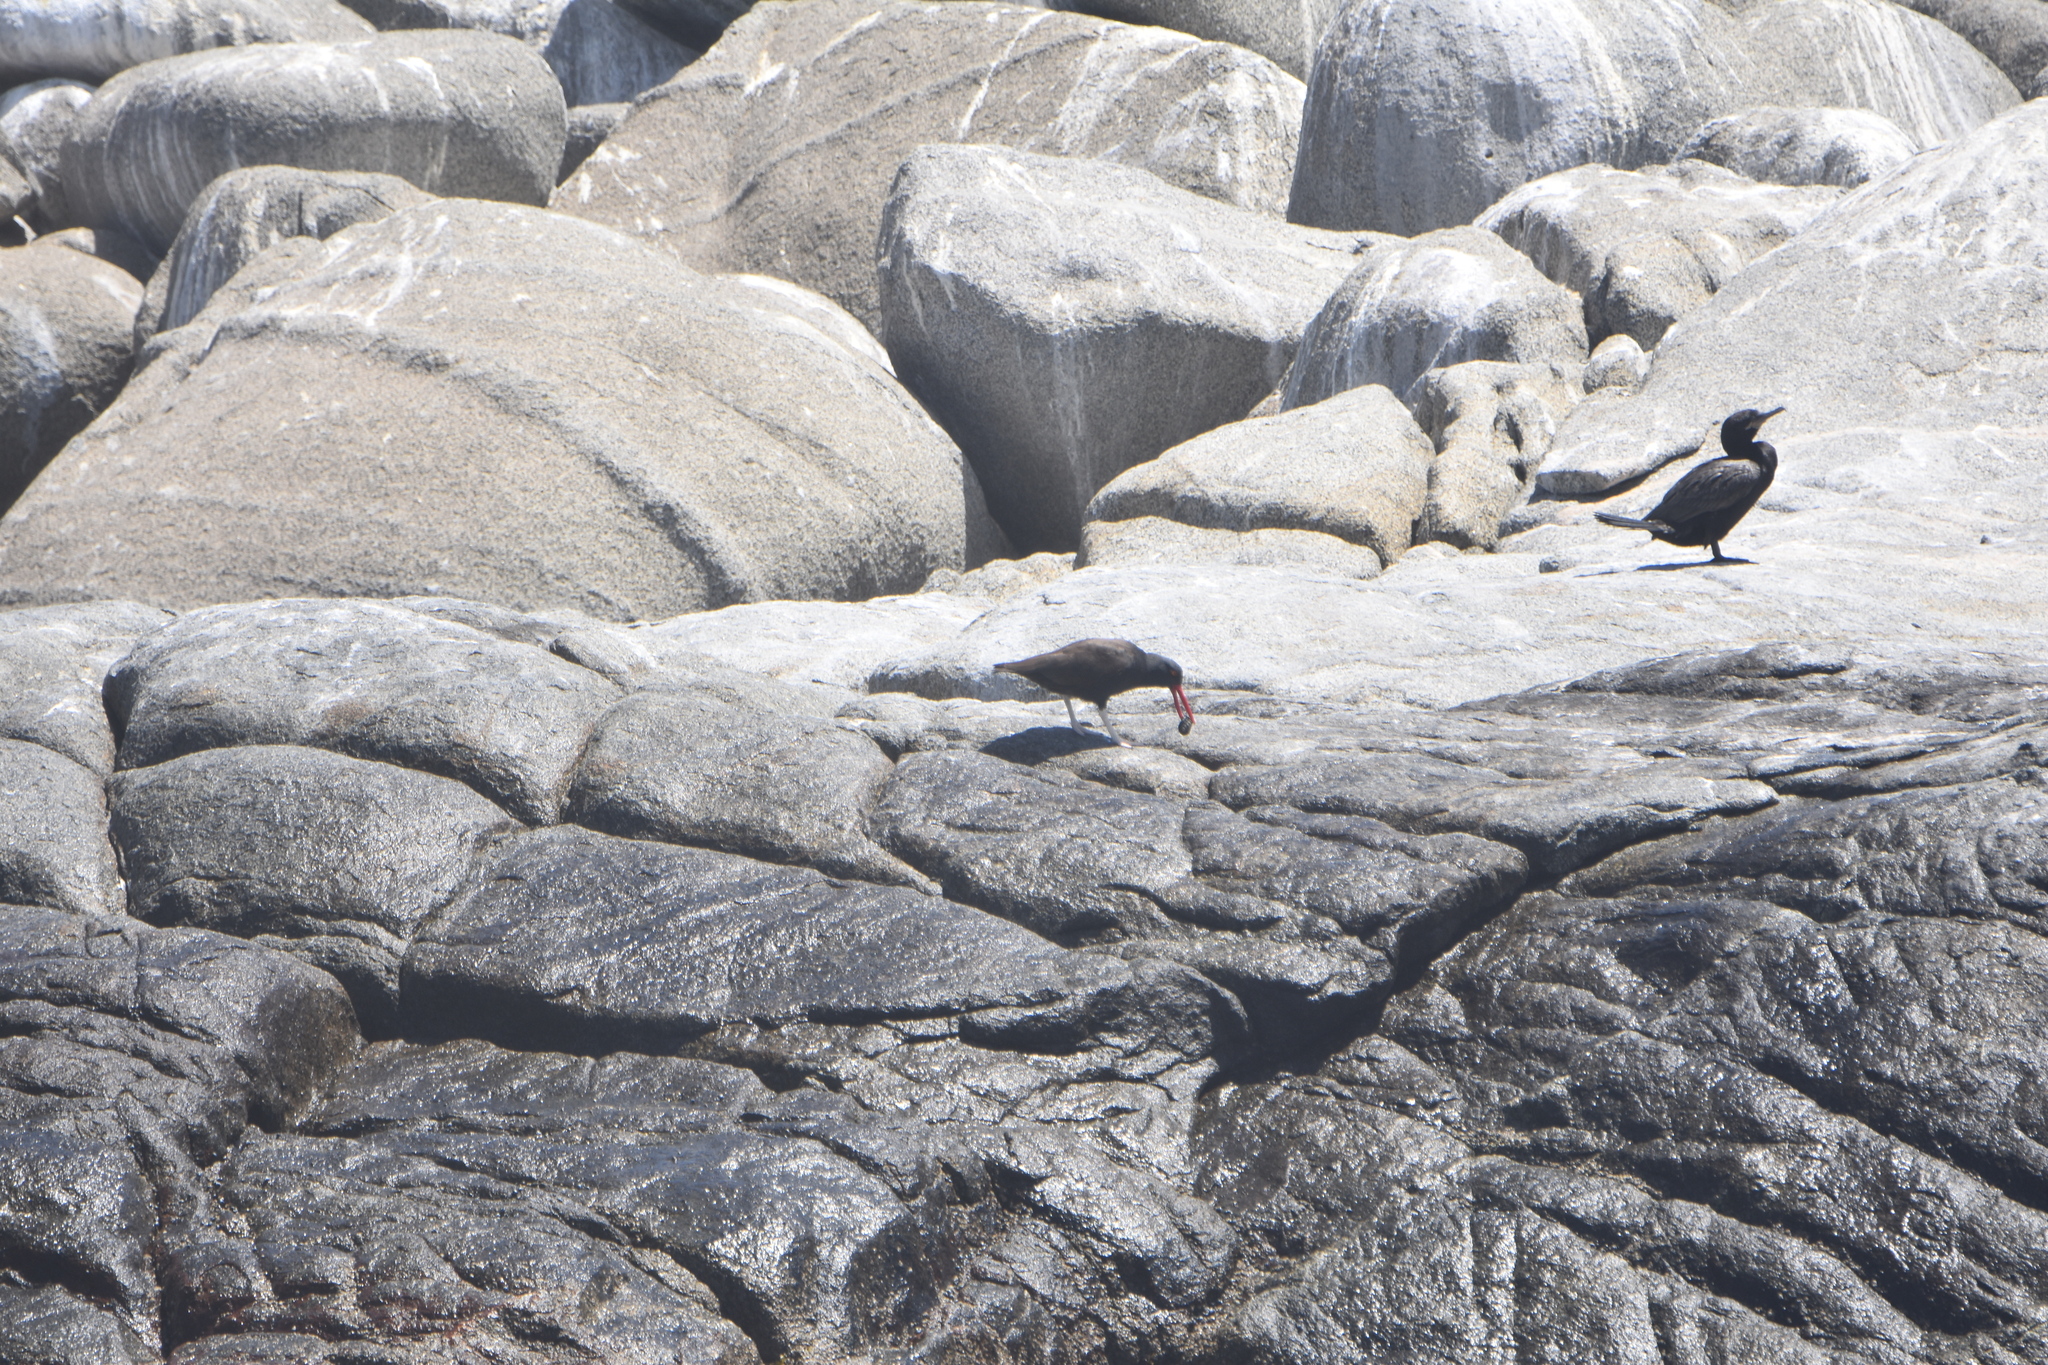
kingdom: Animalia
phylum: Chordata
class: Aves
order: Charadriiformes
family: Haematopodidae
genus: Haematopus
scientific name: Haematopus ater
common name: Blackish oystercatcher
